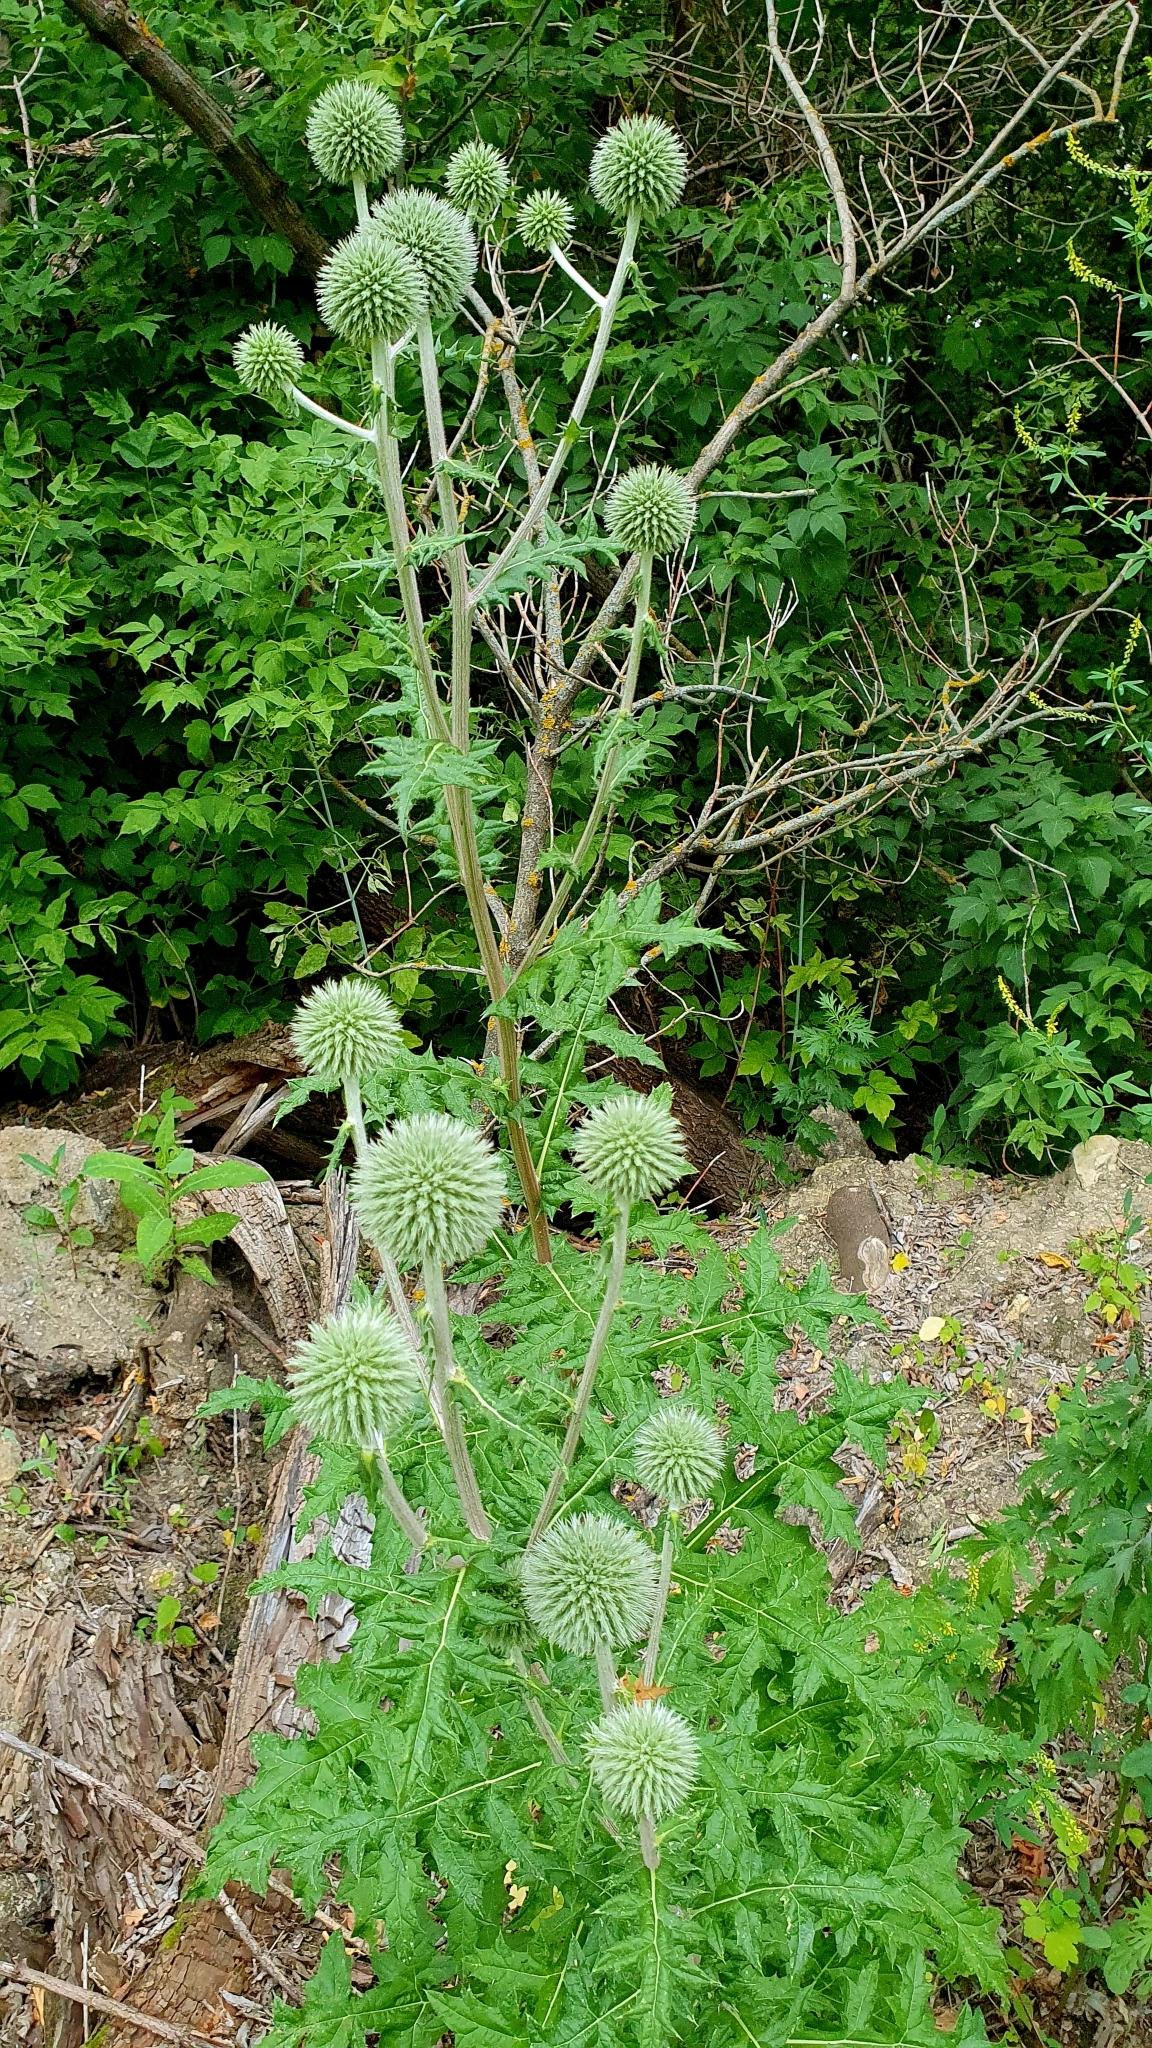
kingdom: Plantae
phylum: Tracheophyta
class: Magnoliopsida
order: Asterales
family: Asteraceae
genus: Echinops
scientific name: Echinops sphaerocephalus
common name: Glandular globe-thistle
